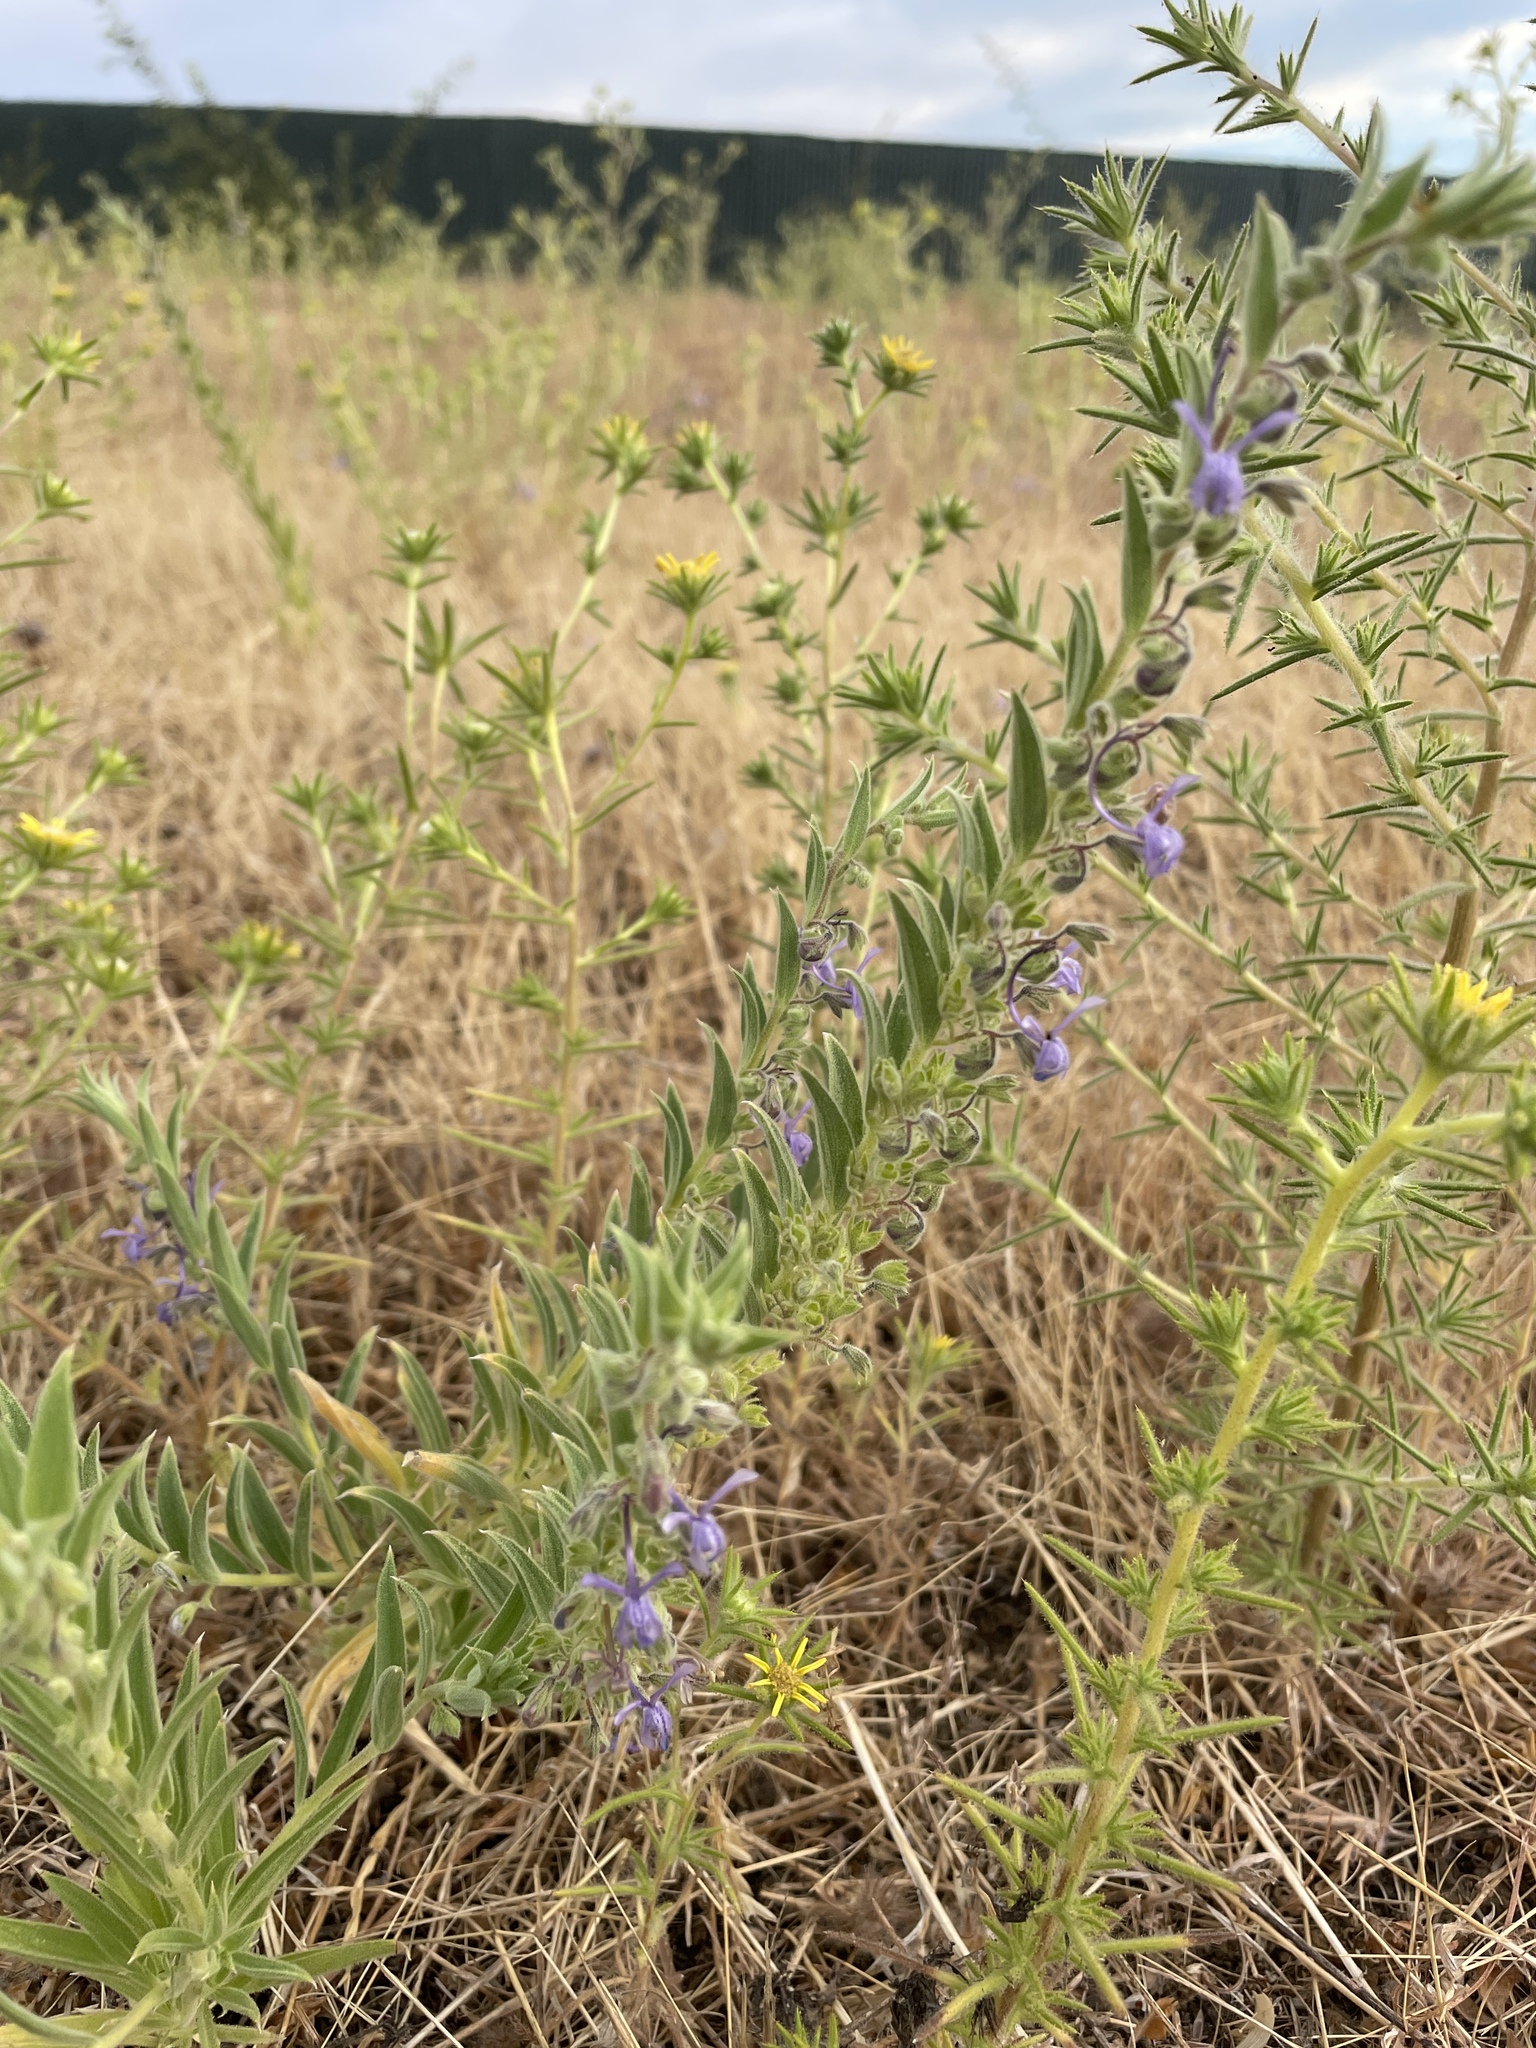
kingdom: Plantae
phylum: Tracheophyta
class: Magnoliopsida
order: Lamiales
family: Lamiaceae
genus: Trichostema
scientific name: Trichostema lanceolatum
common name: Vinegar-weed
